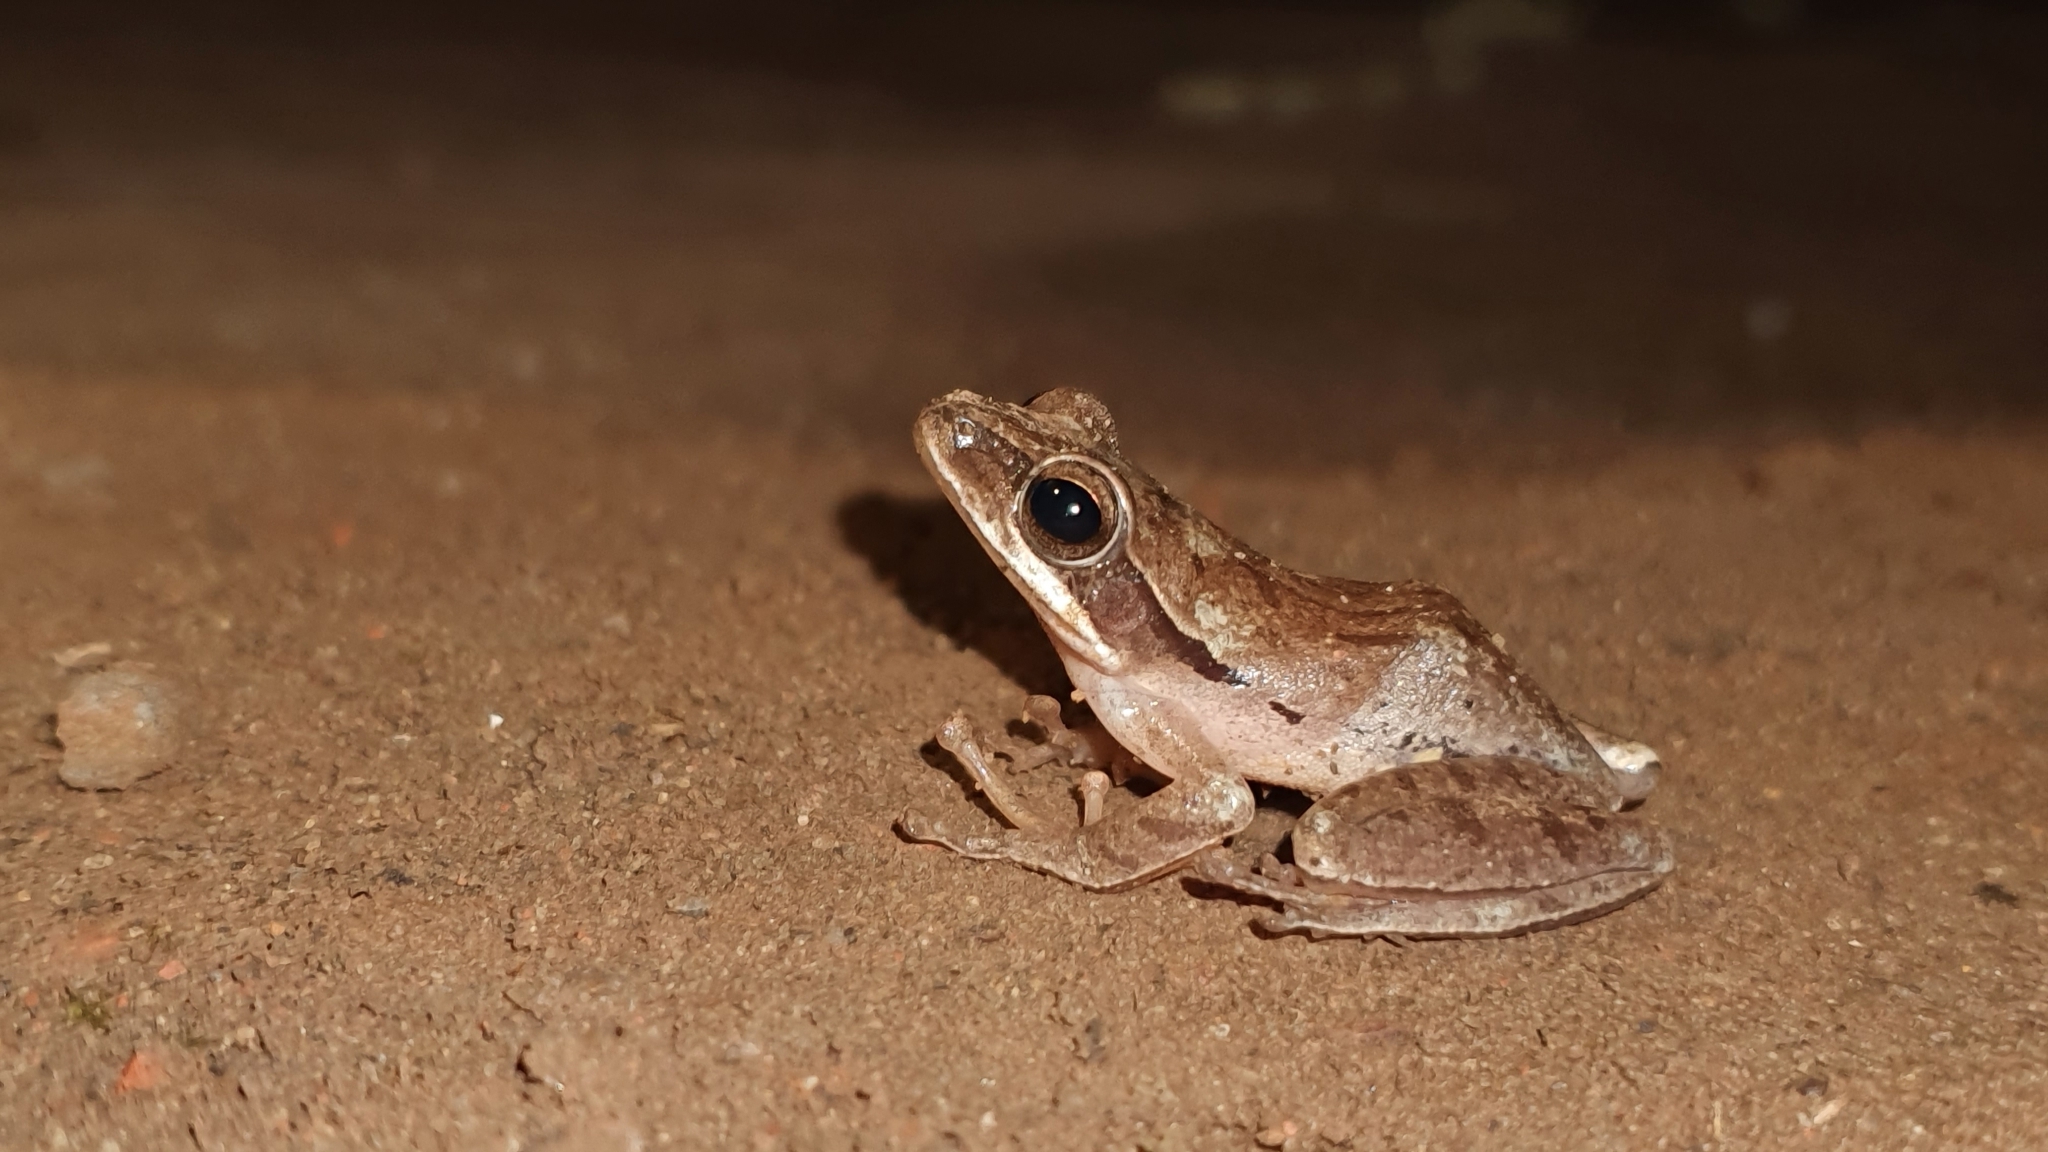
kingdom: Animalia
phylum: Chordata
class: Amphibia
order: Anura
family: Rhacophoridae
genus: Polypedates
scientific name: Polypedates maculatus
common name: Himalayan tree frog
